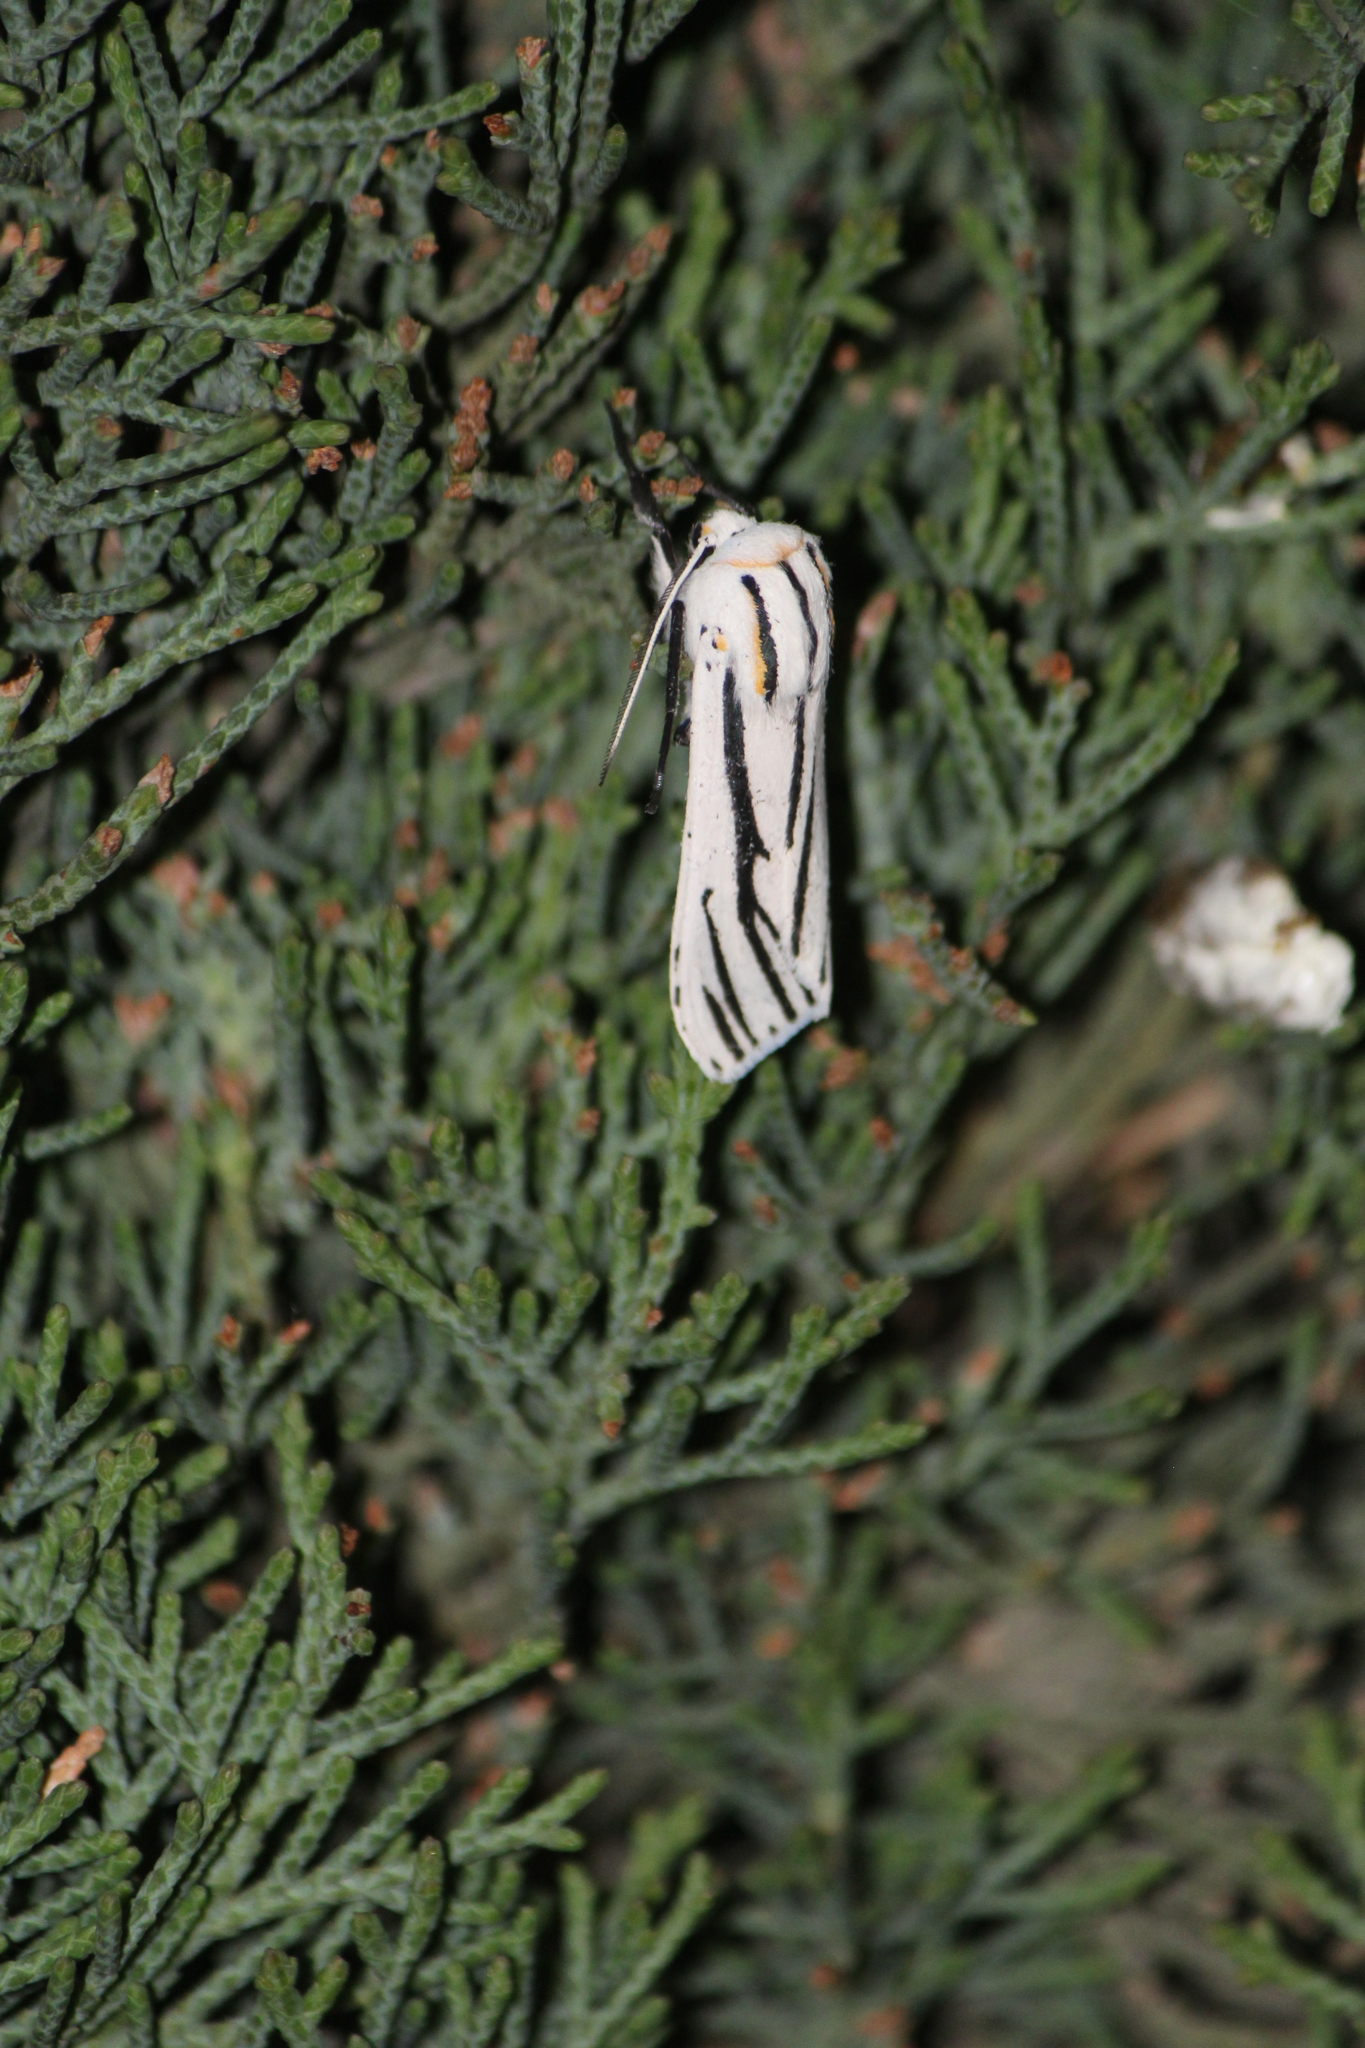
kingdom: Animalia
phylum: Arthropoda
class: Insecta
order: Lepidoptera
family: Erebidae
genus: Ectypia
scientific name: Ectypia clio
